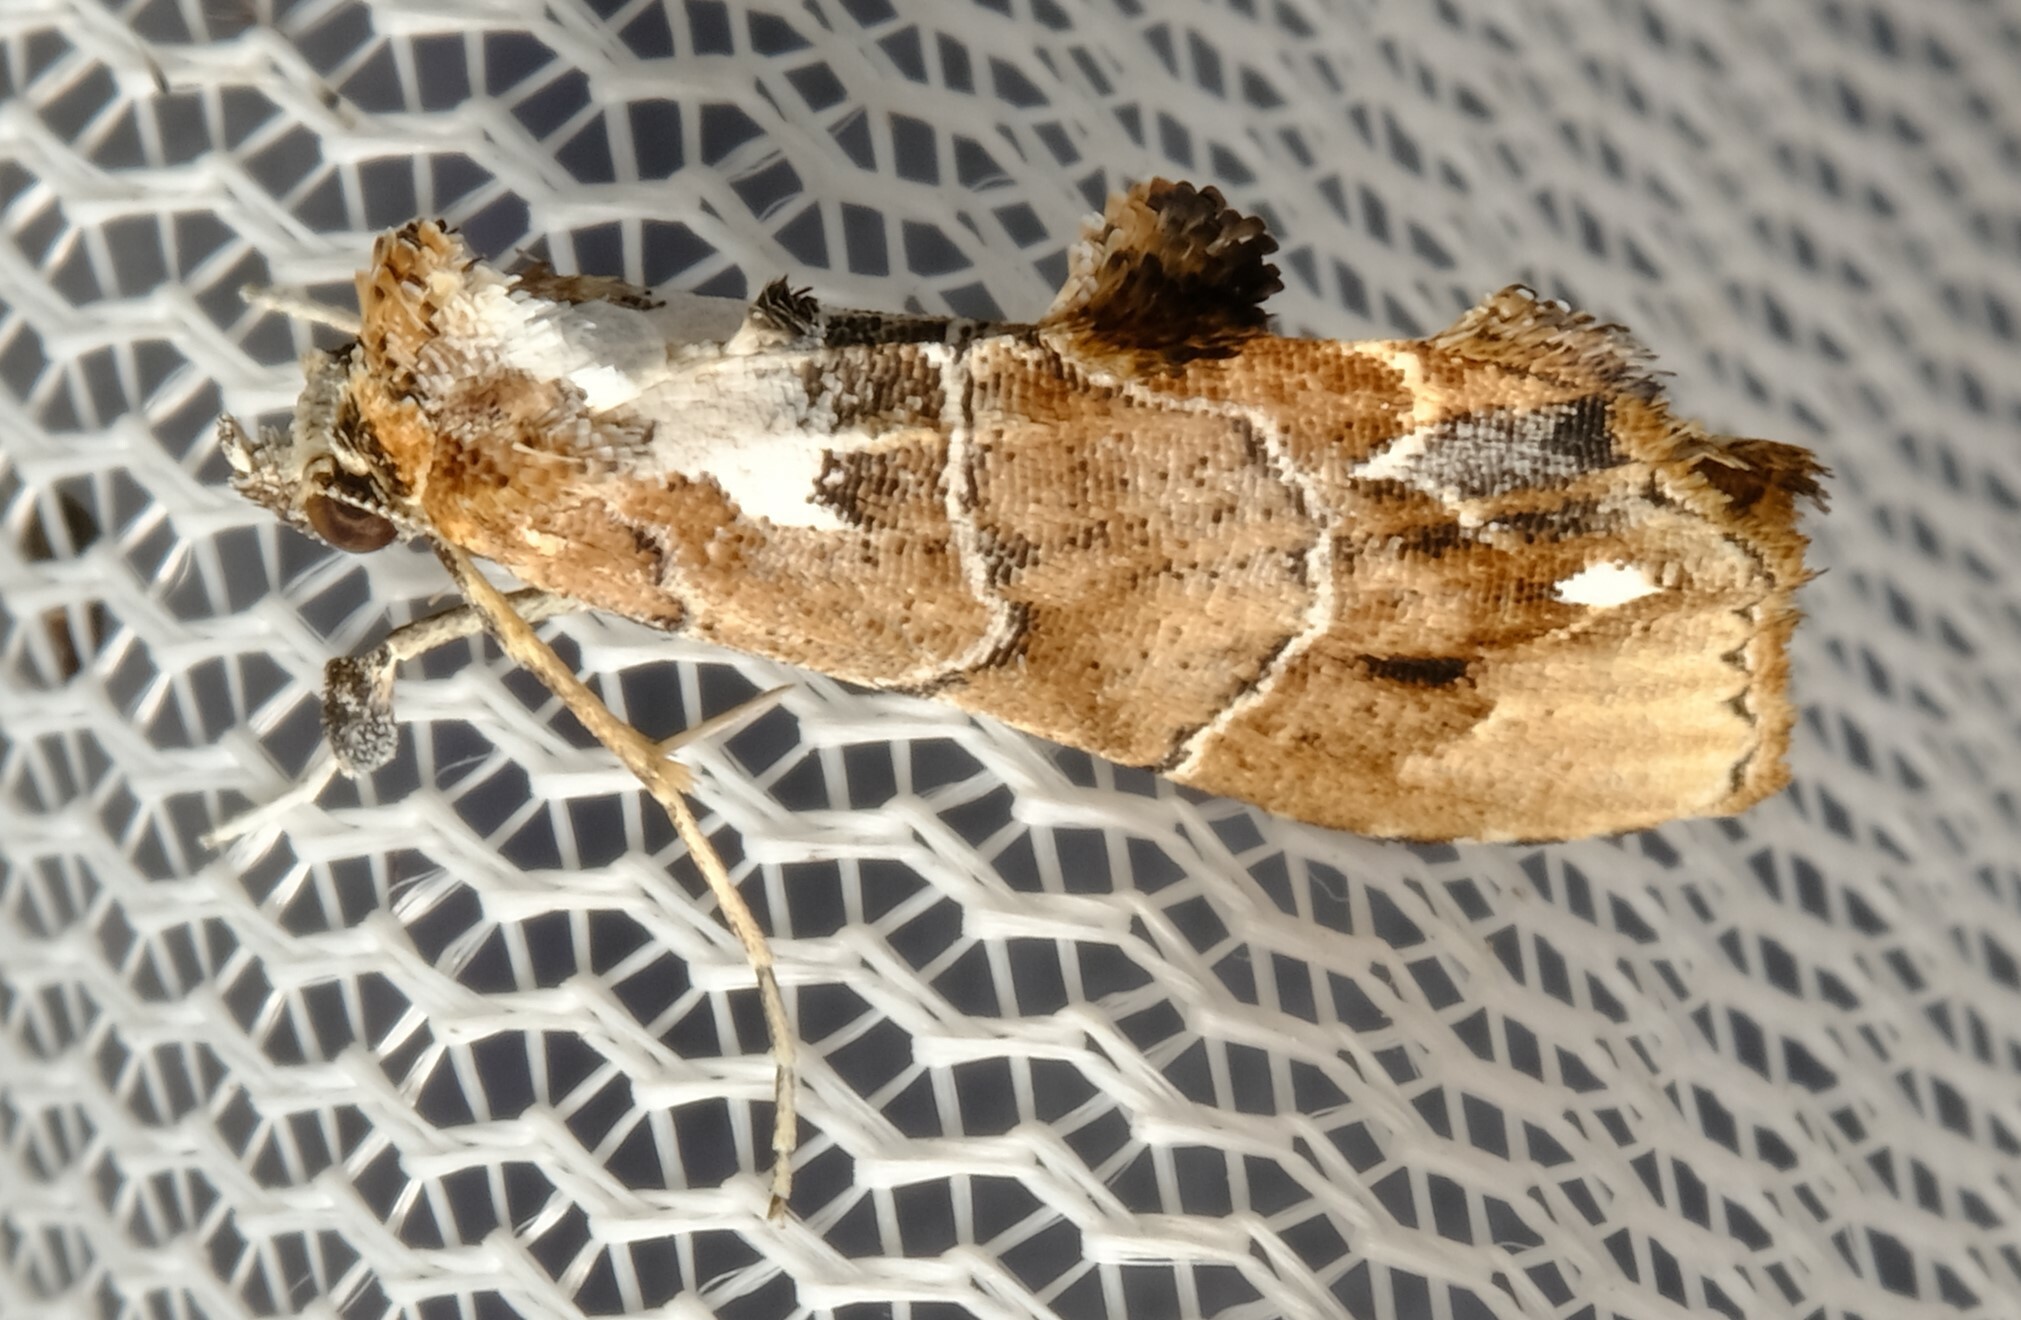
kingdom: Animalia
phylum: Arthropoda
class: Insecta
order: Lepidoptera
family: Erebidae
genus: Arrade
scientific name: Arrade leucocosmalis
